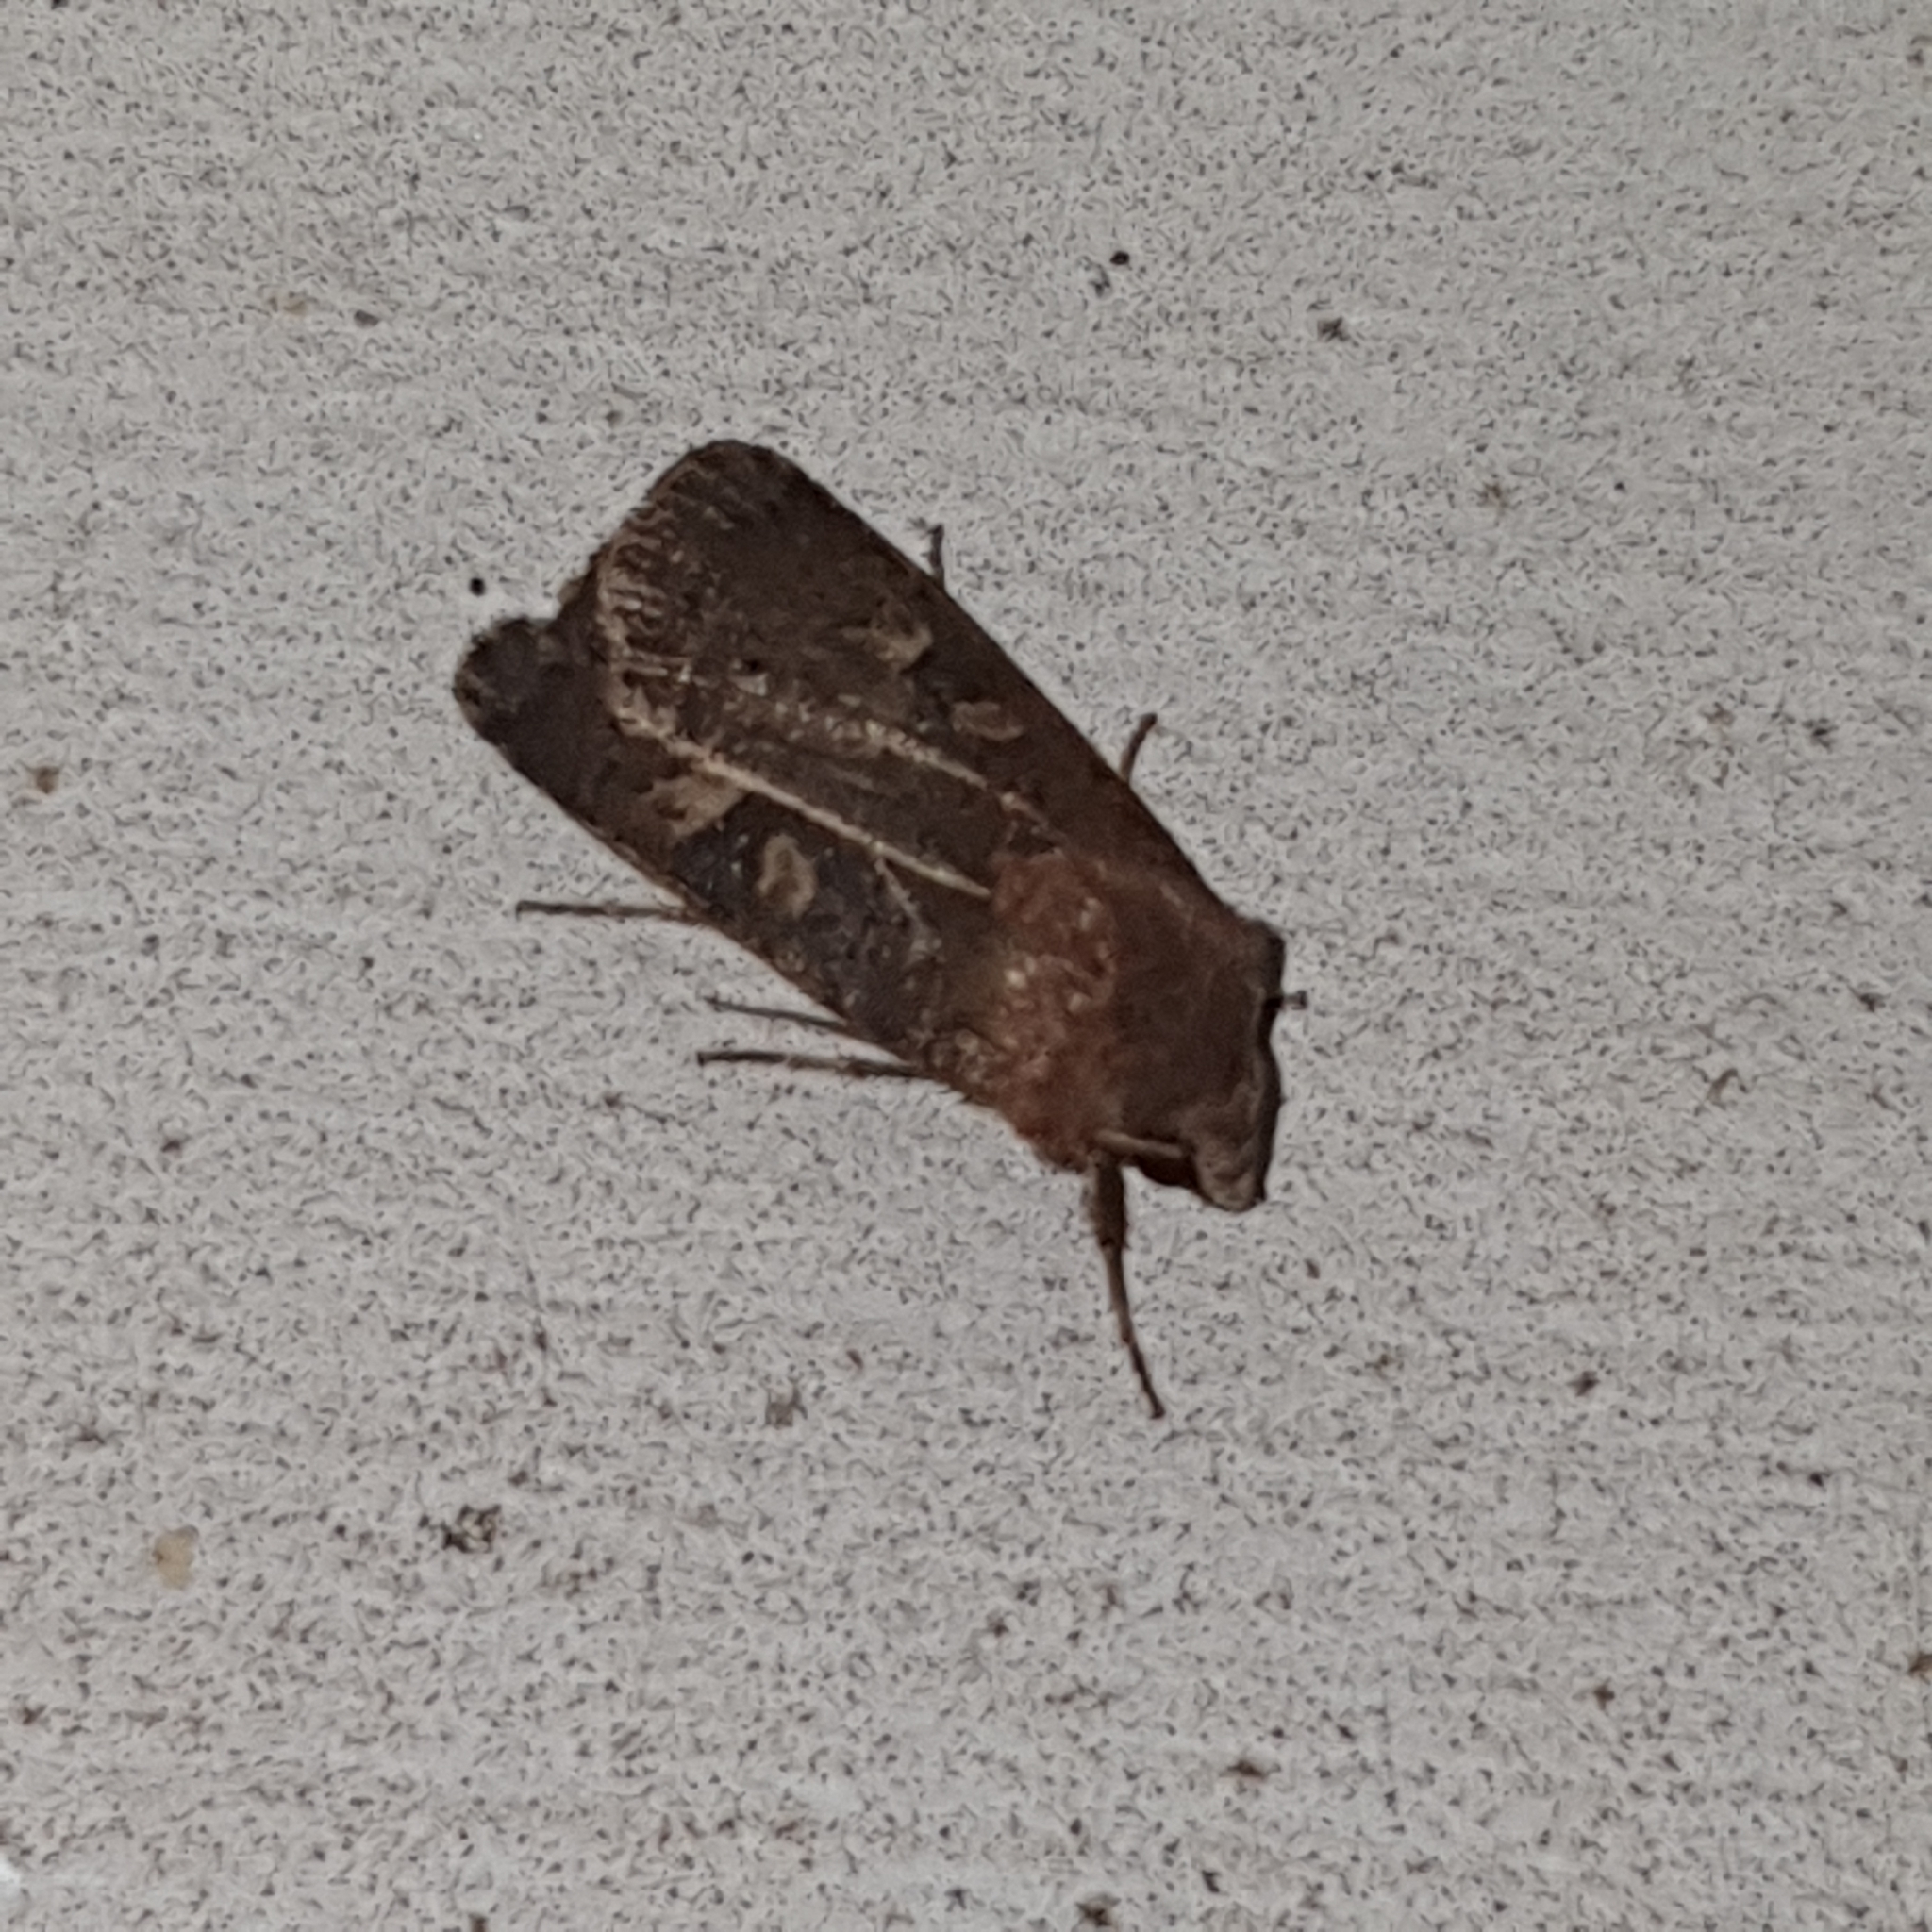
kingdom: Animalia
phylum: Arthropoda
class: Insecta
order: Lepidoptera
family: Noctuidae
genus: Xestia
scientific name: Xestia xanthographa
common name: Square-spot rustic
